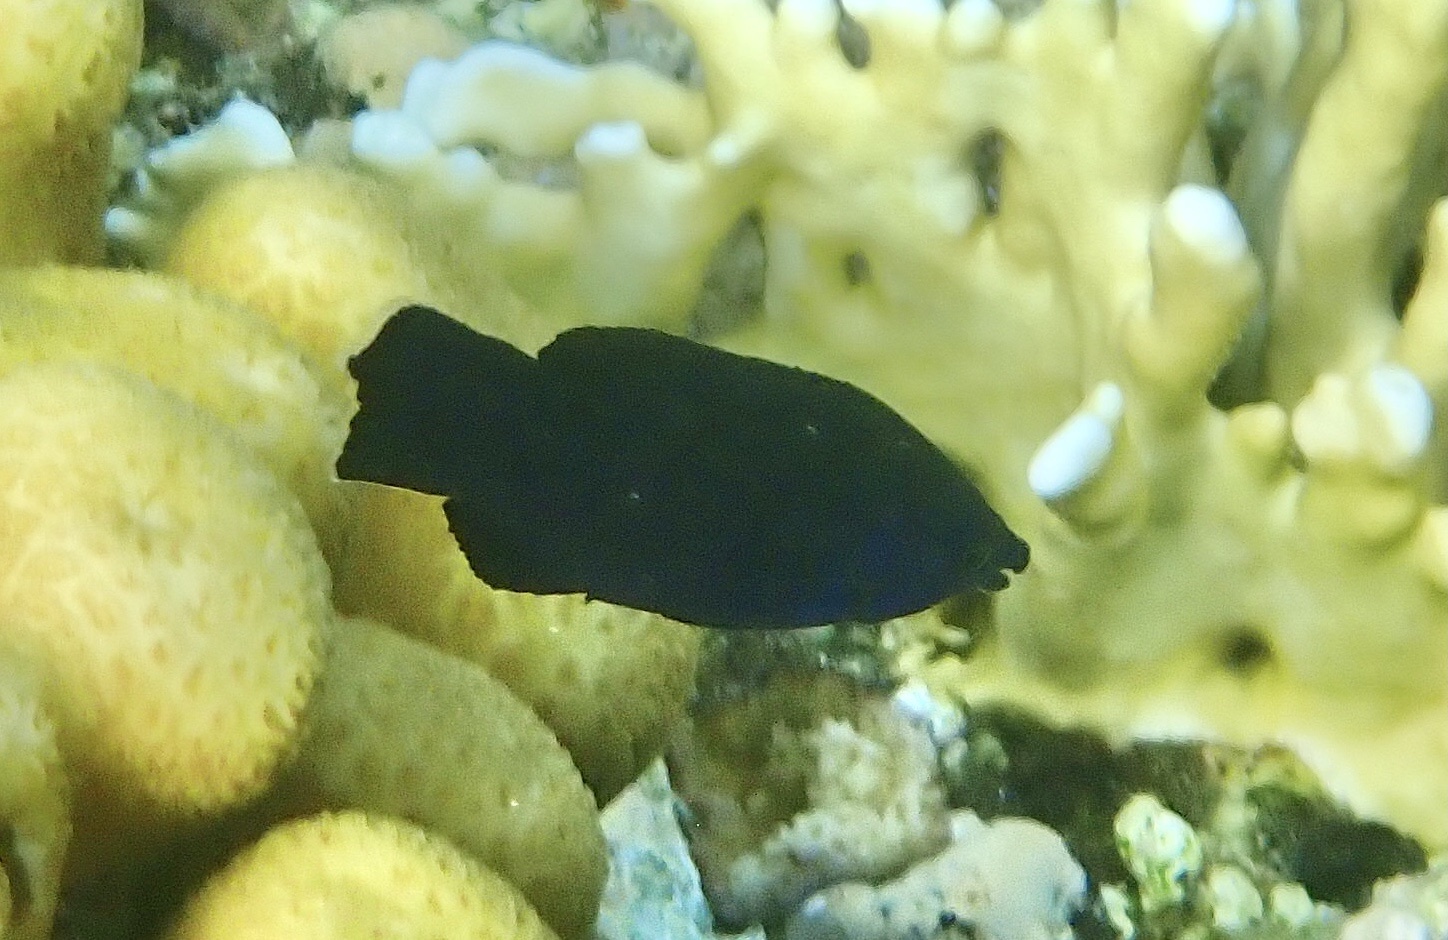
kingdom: Animalia
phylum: Chordata
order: Perciformes
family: Labridae
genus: Larabicus
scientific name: Larabicus quadrilineatus
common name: Fourline wrasse
